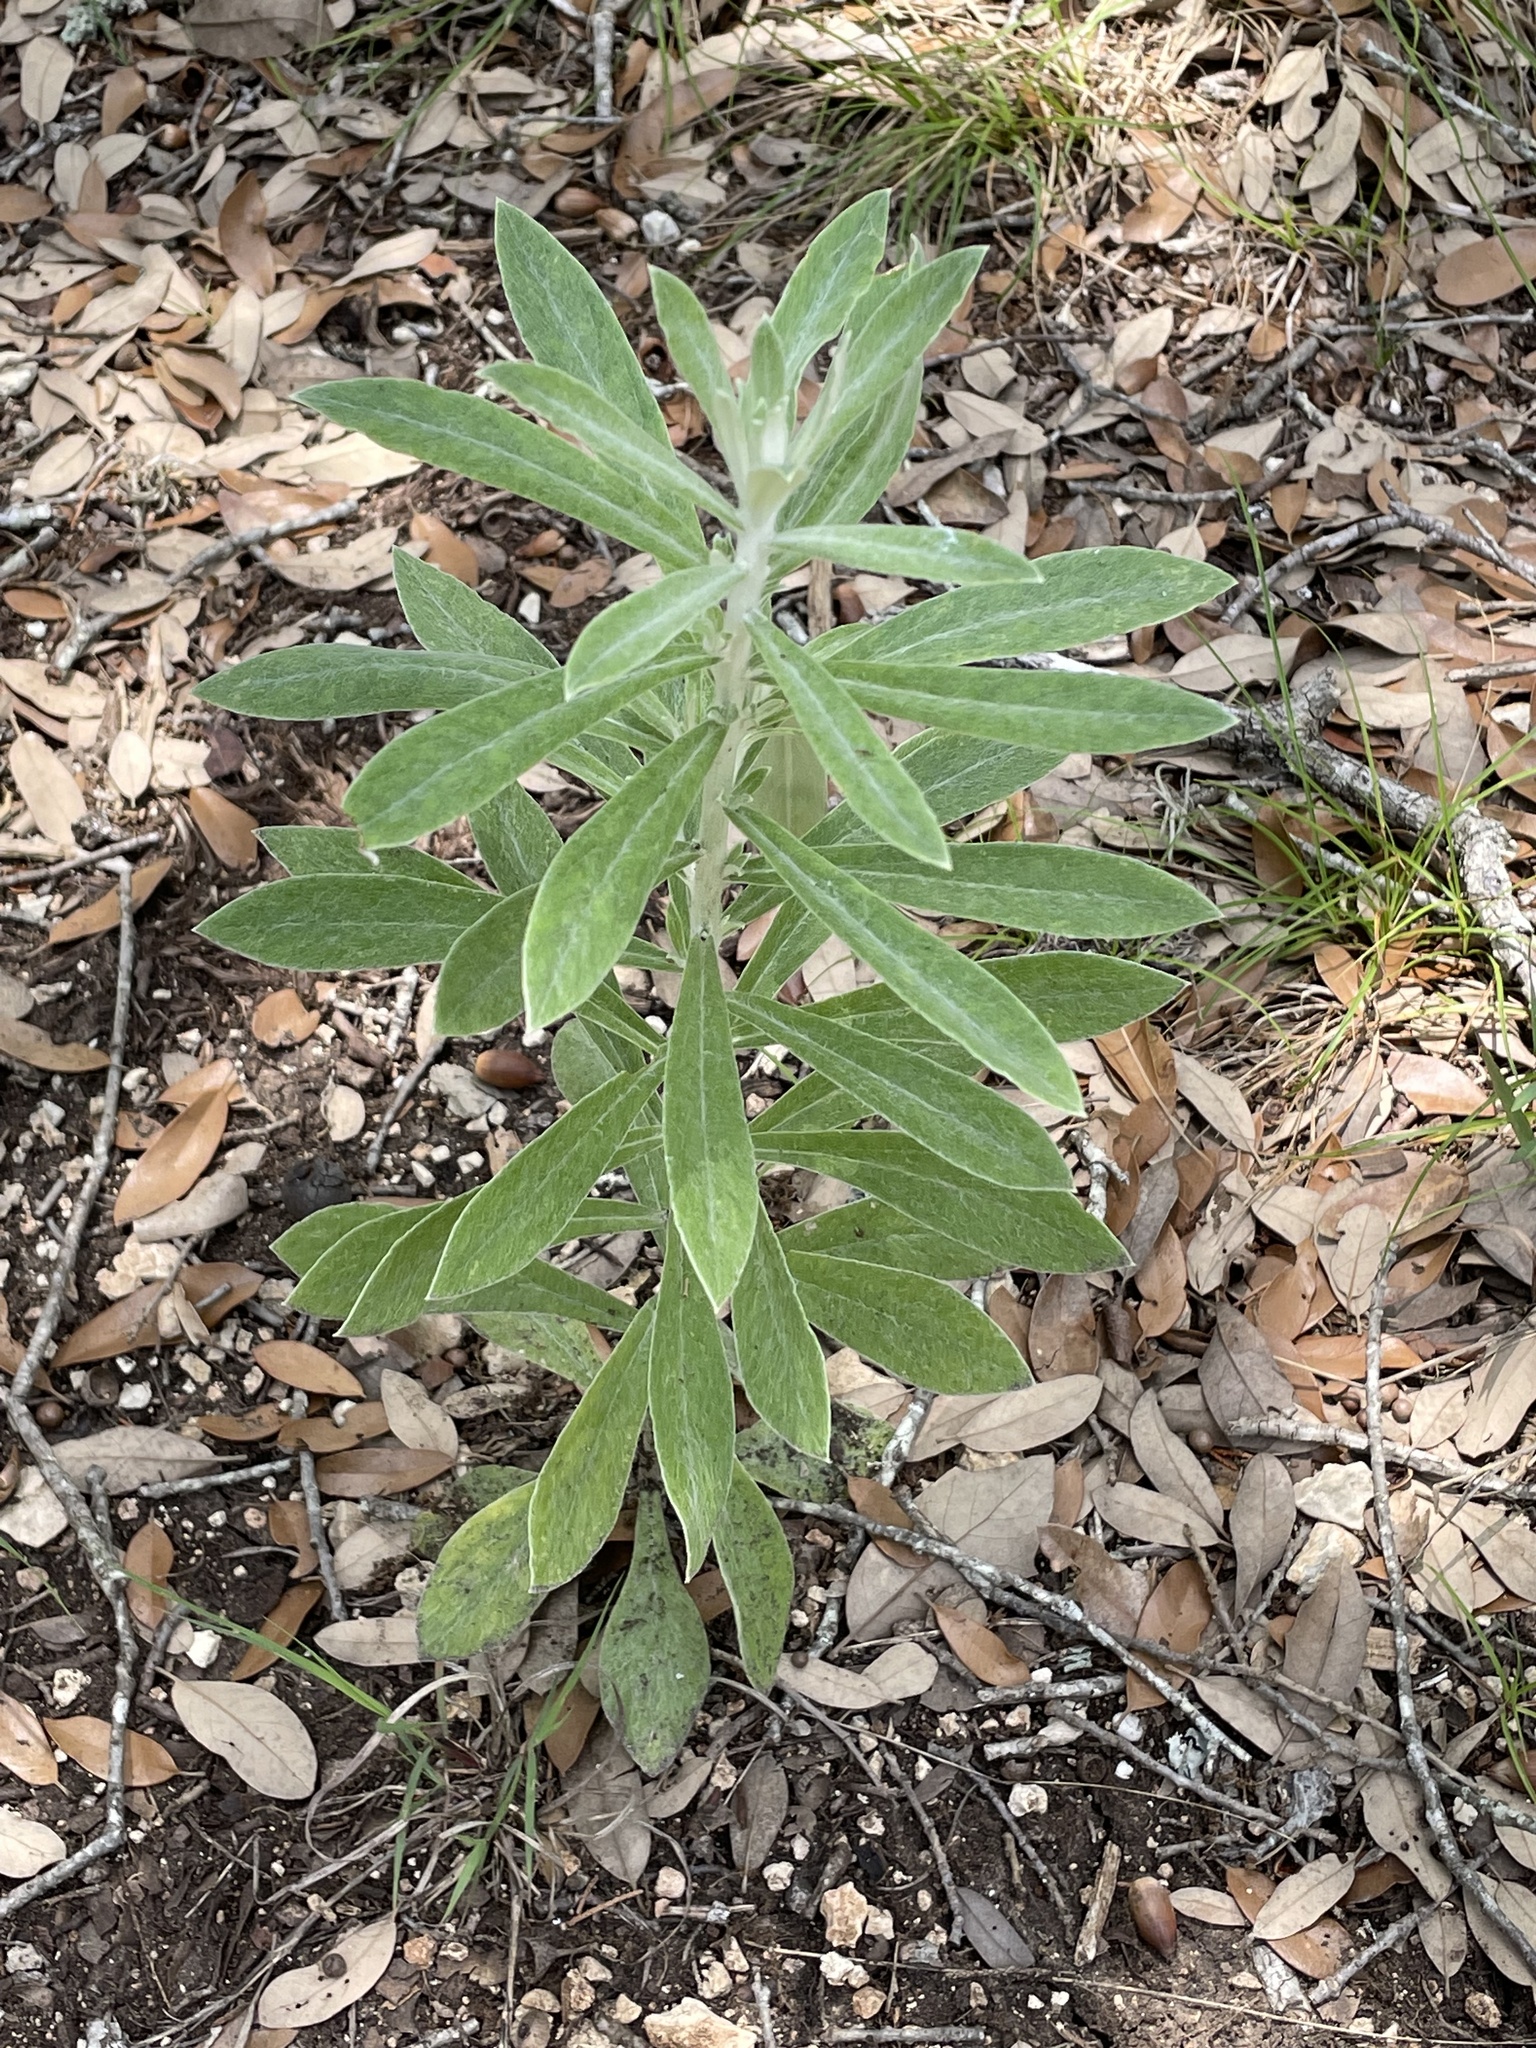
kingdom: Plantae
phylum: Tracheophyta
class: Magnoliopsida
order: Asterales
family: Asteraceae
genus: Pseudognaphalium
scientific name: Pseudognaphalium obtusifolium
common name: Eastern rabbit-tobacco
